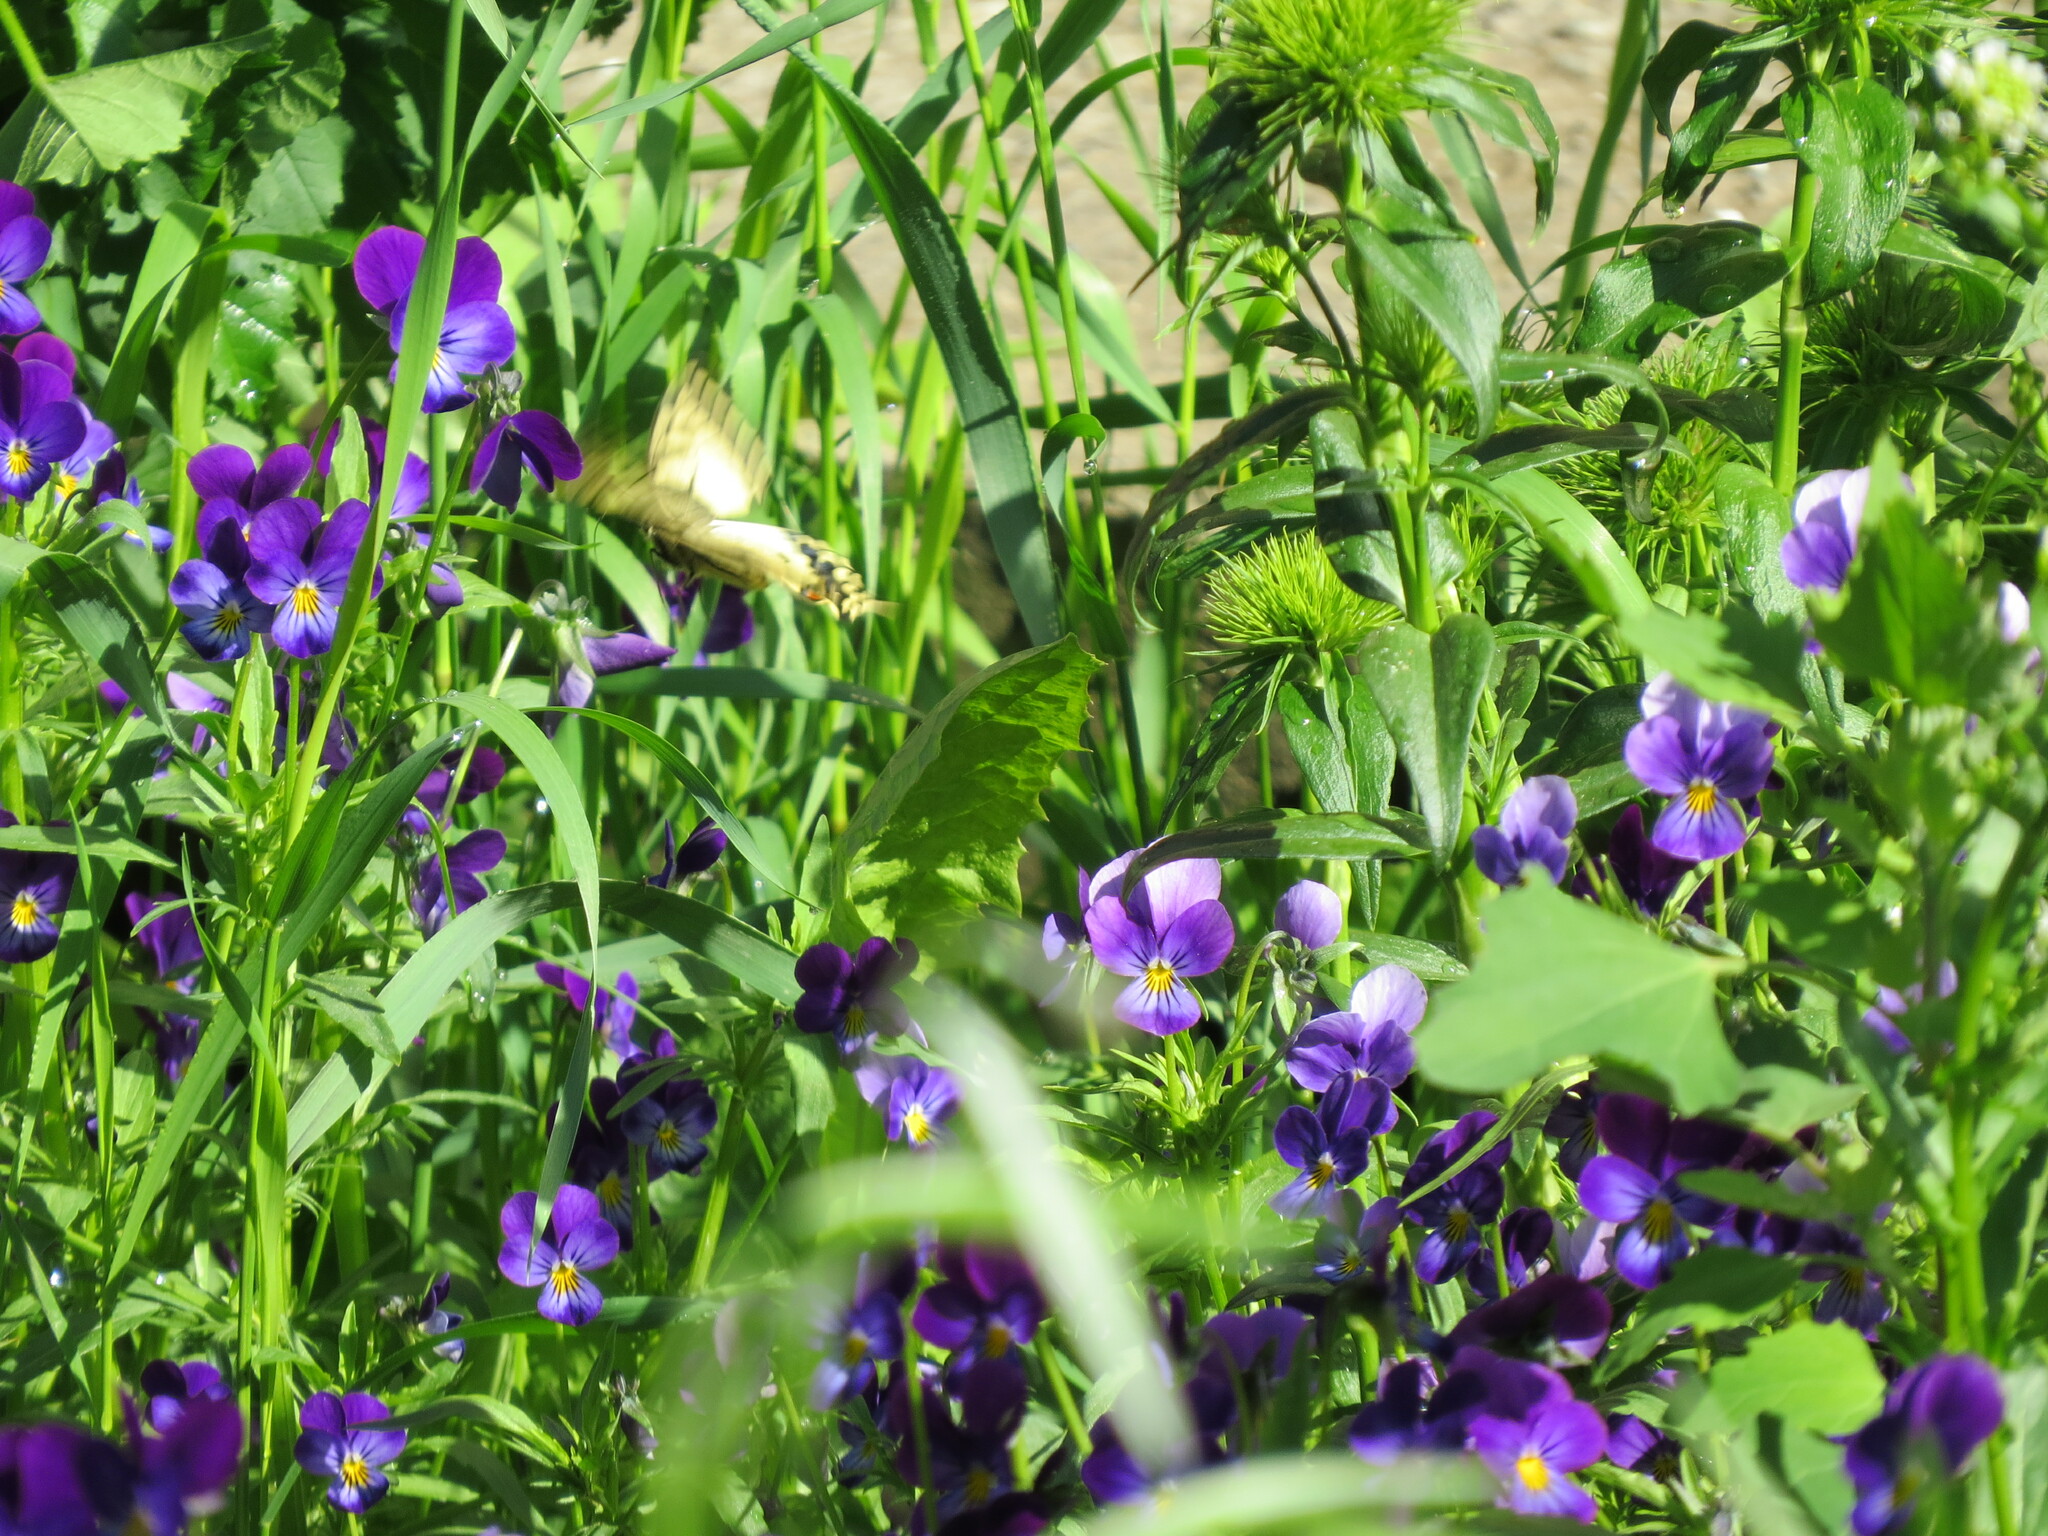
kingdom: Animalia
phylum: Arthropoda
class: Insecta
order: Lepidoptera
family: Papilionidae
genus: Papilio
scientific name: Papilio machaon
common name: Swallowtail
